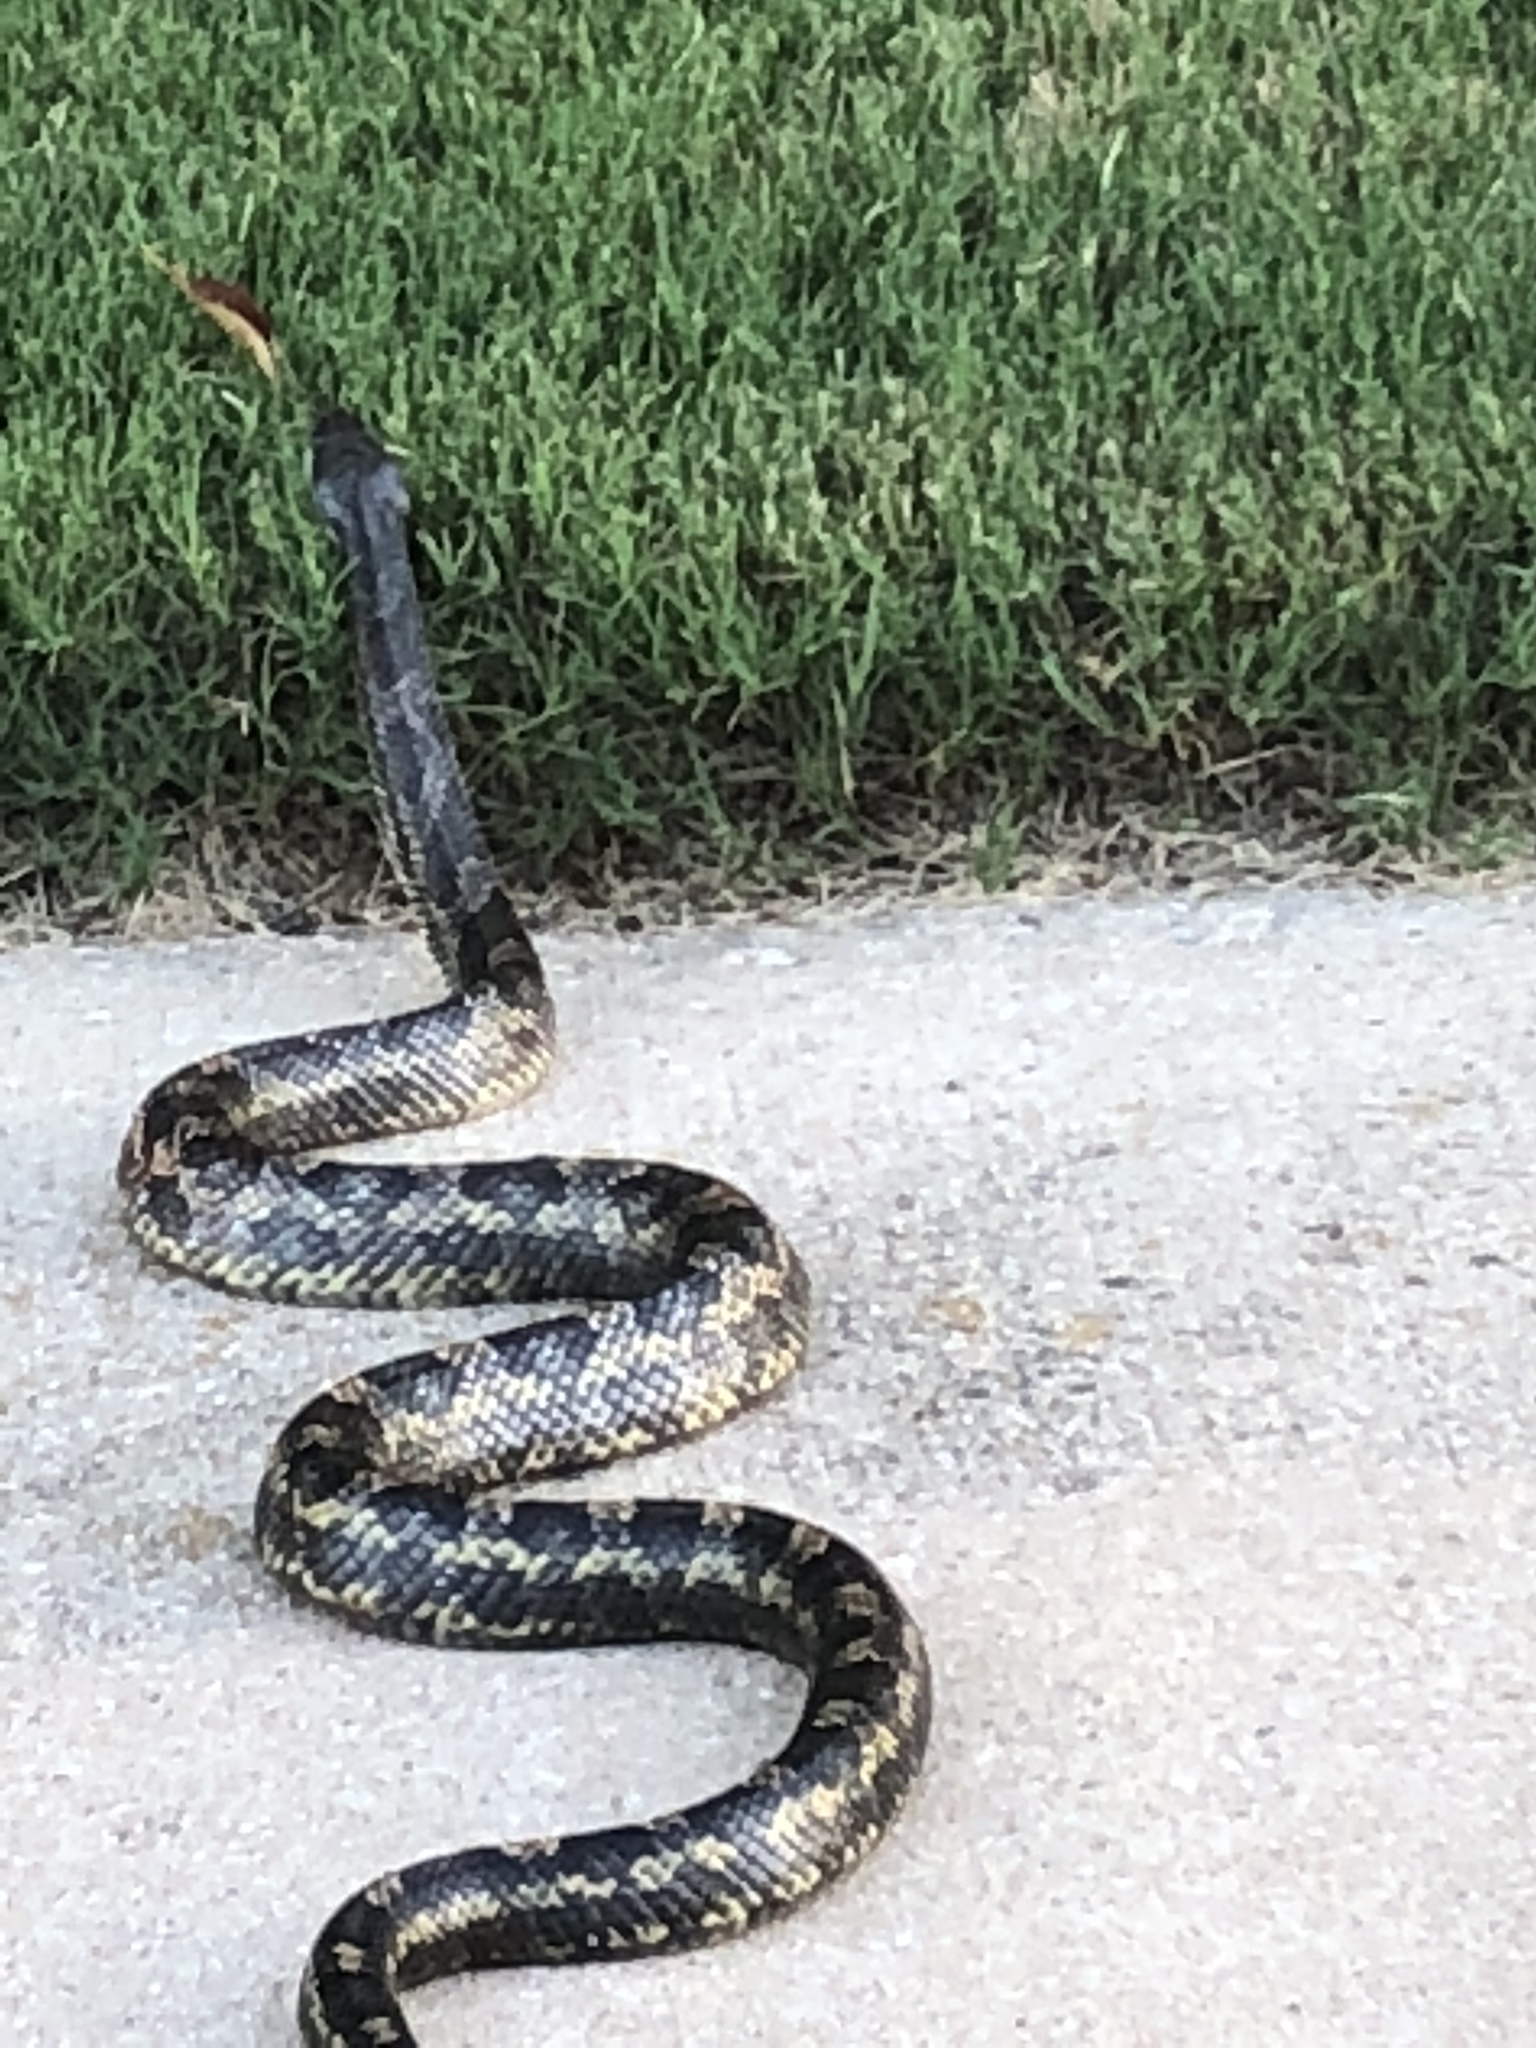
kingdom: Animalia
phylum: Chordata
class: Squamata
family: Colubridae
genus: Pantherophis
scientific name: Pantherophis obsoletus
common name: Black rat snake
